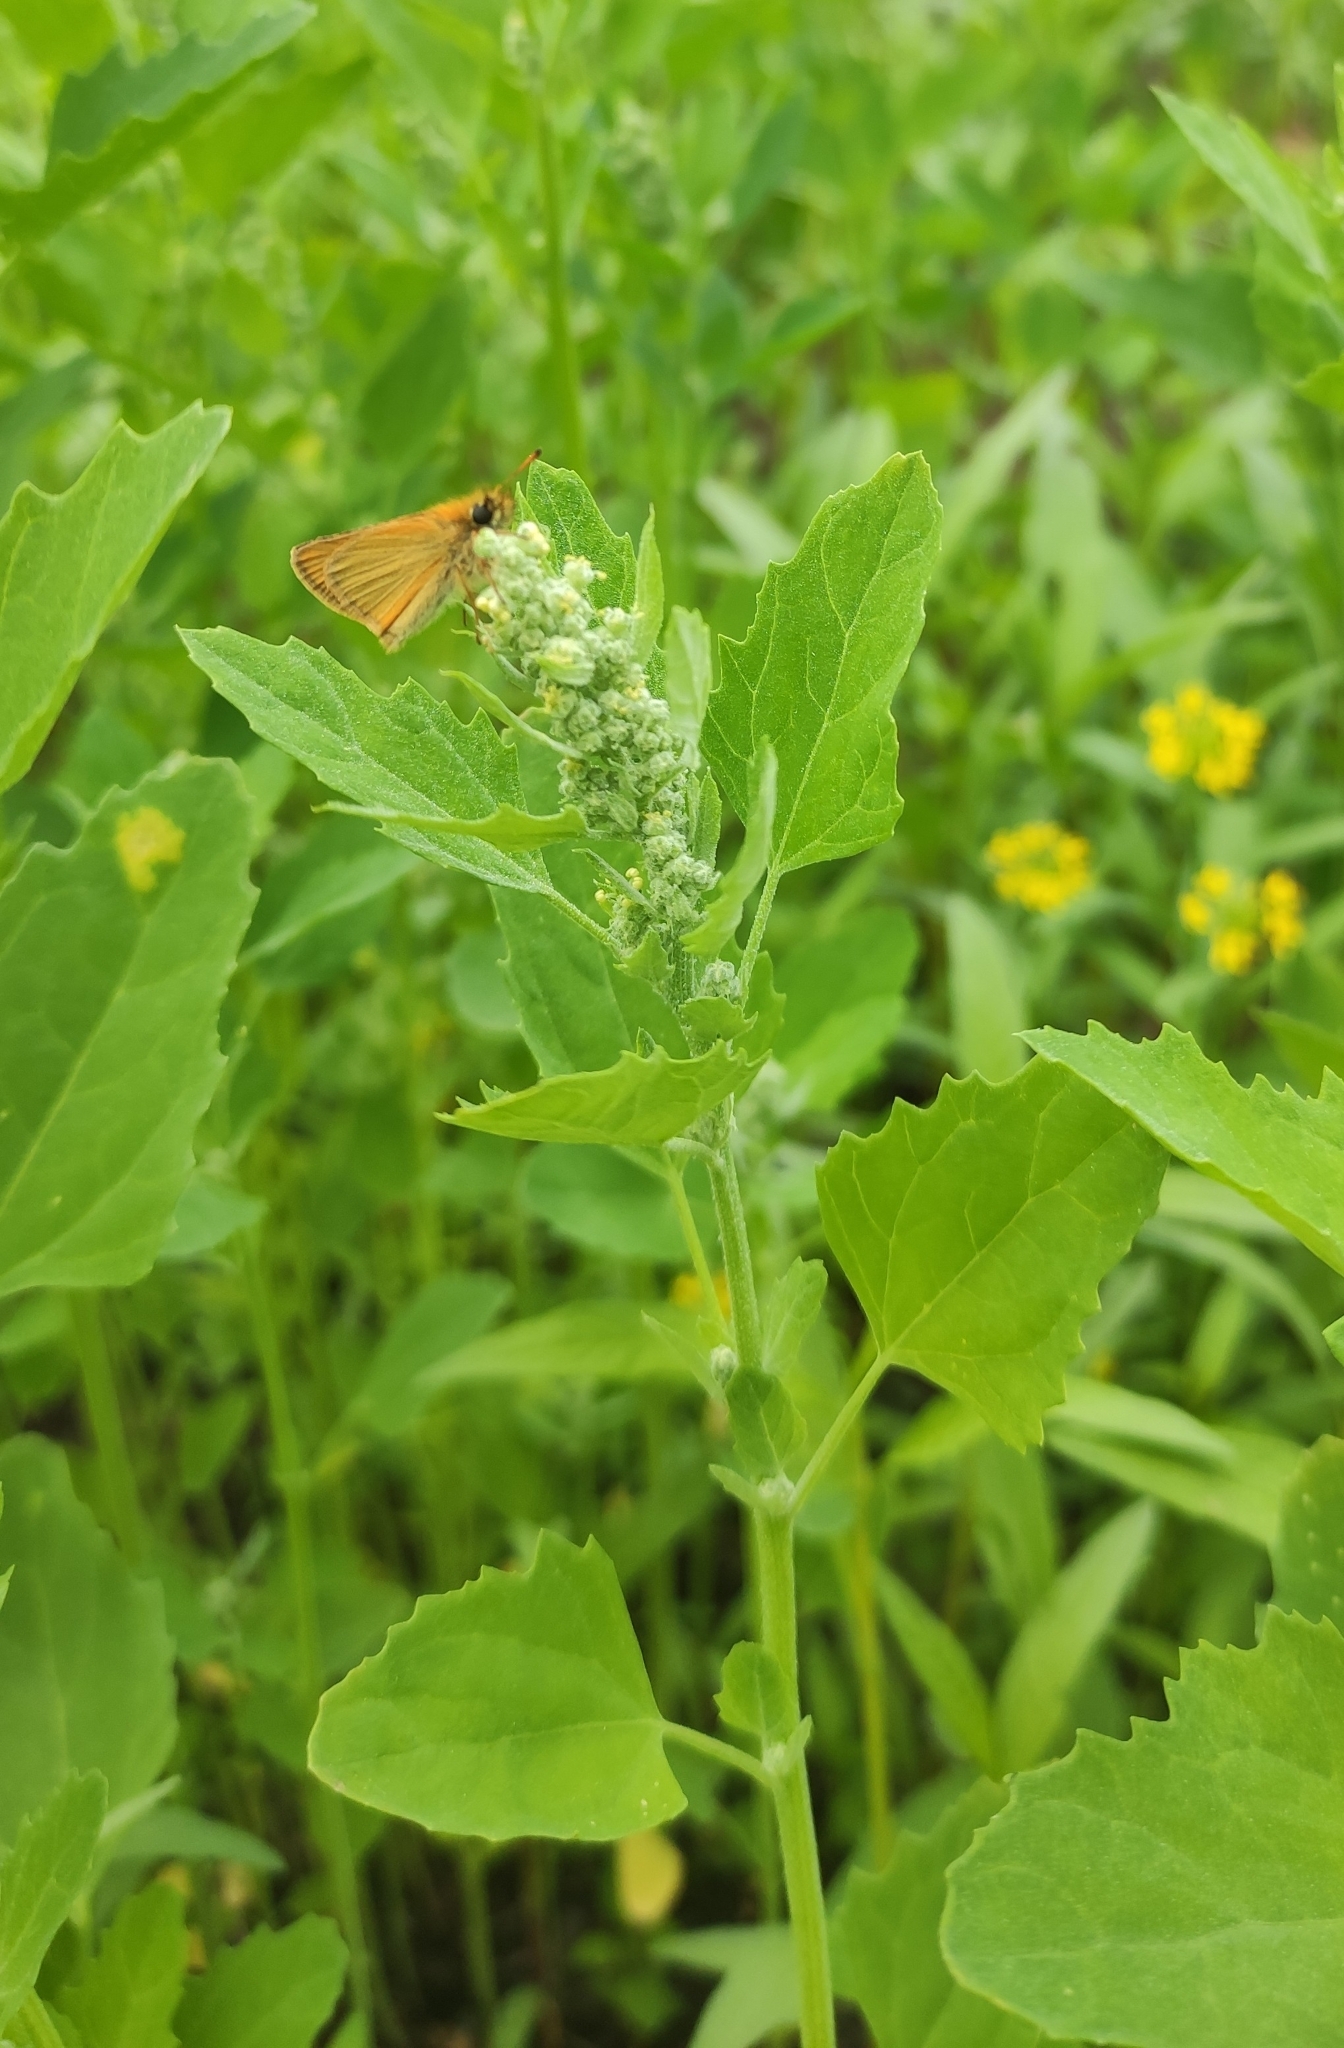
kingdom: Plantae
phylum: Tracheophyta
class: Magnoliopsida
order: Caryophyllales
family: Amaranthaceae
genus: Chenopodium
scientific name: Chenopodium album
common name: Fat-hen
